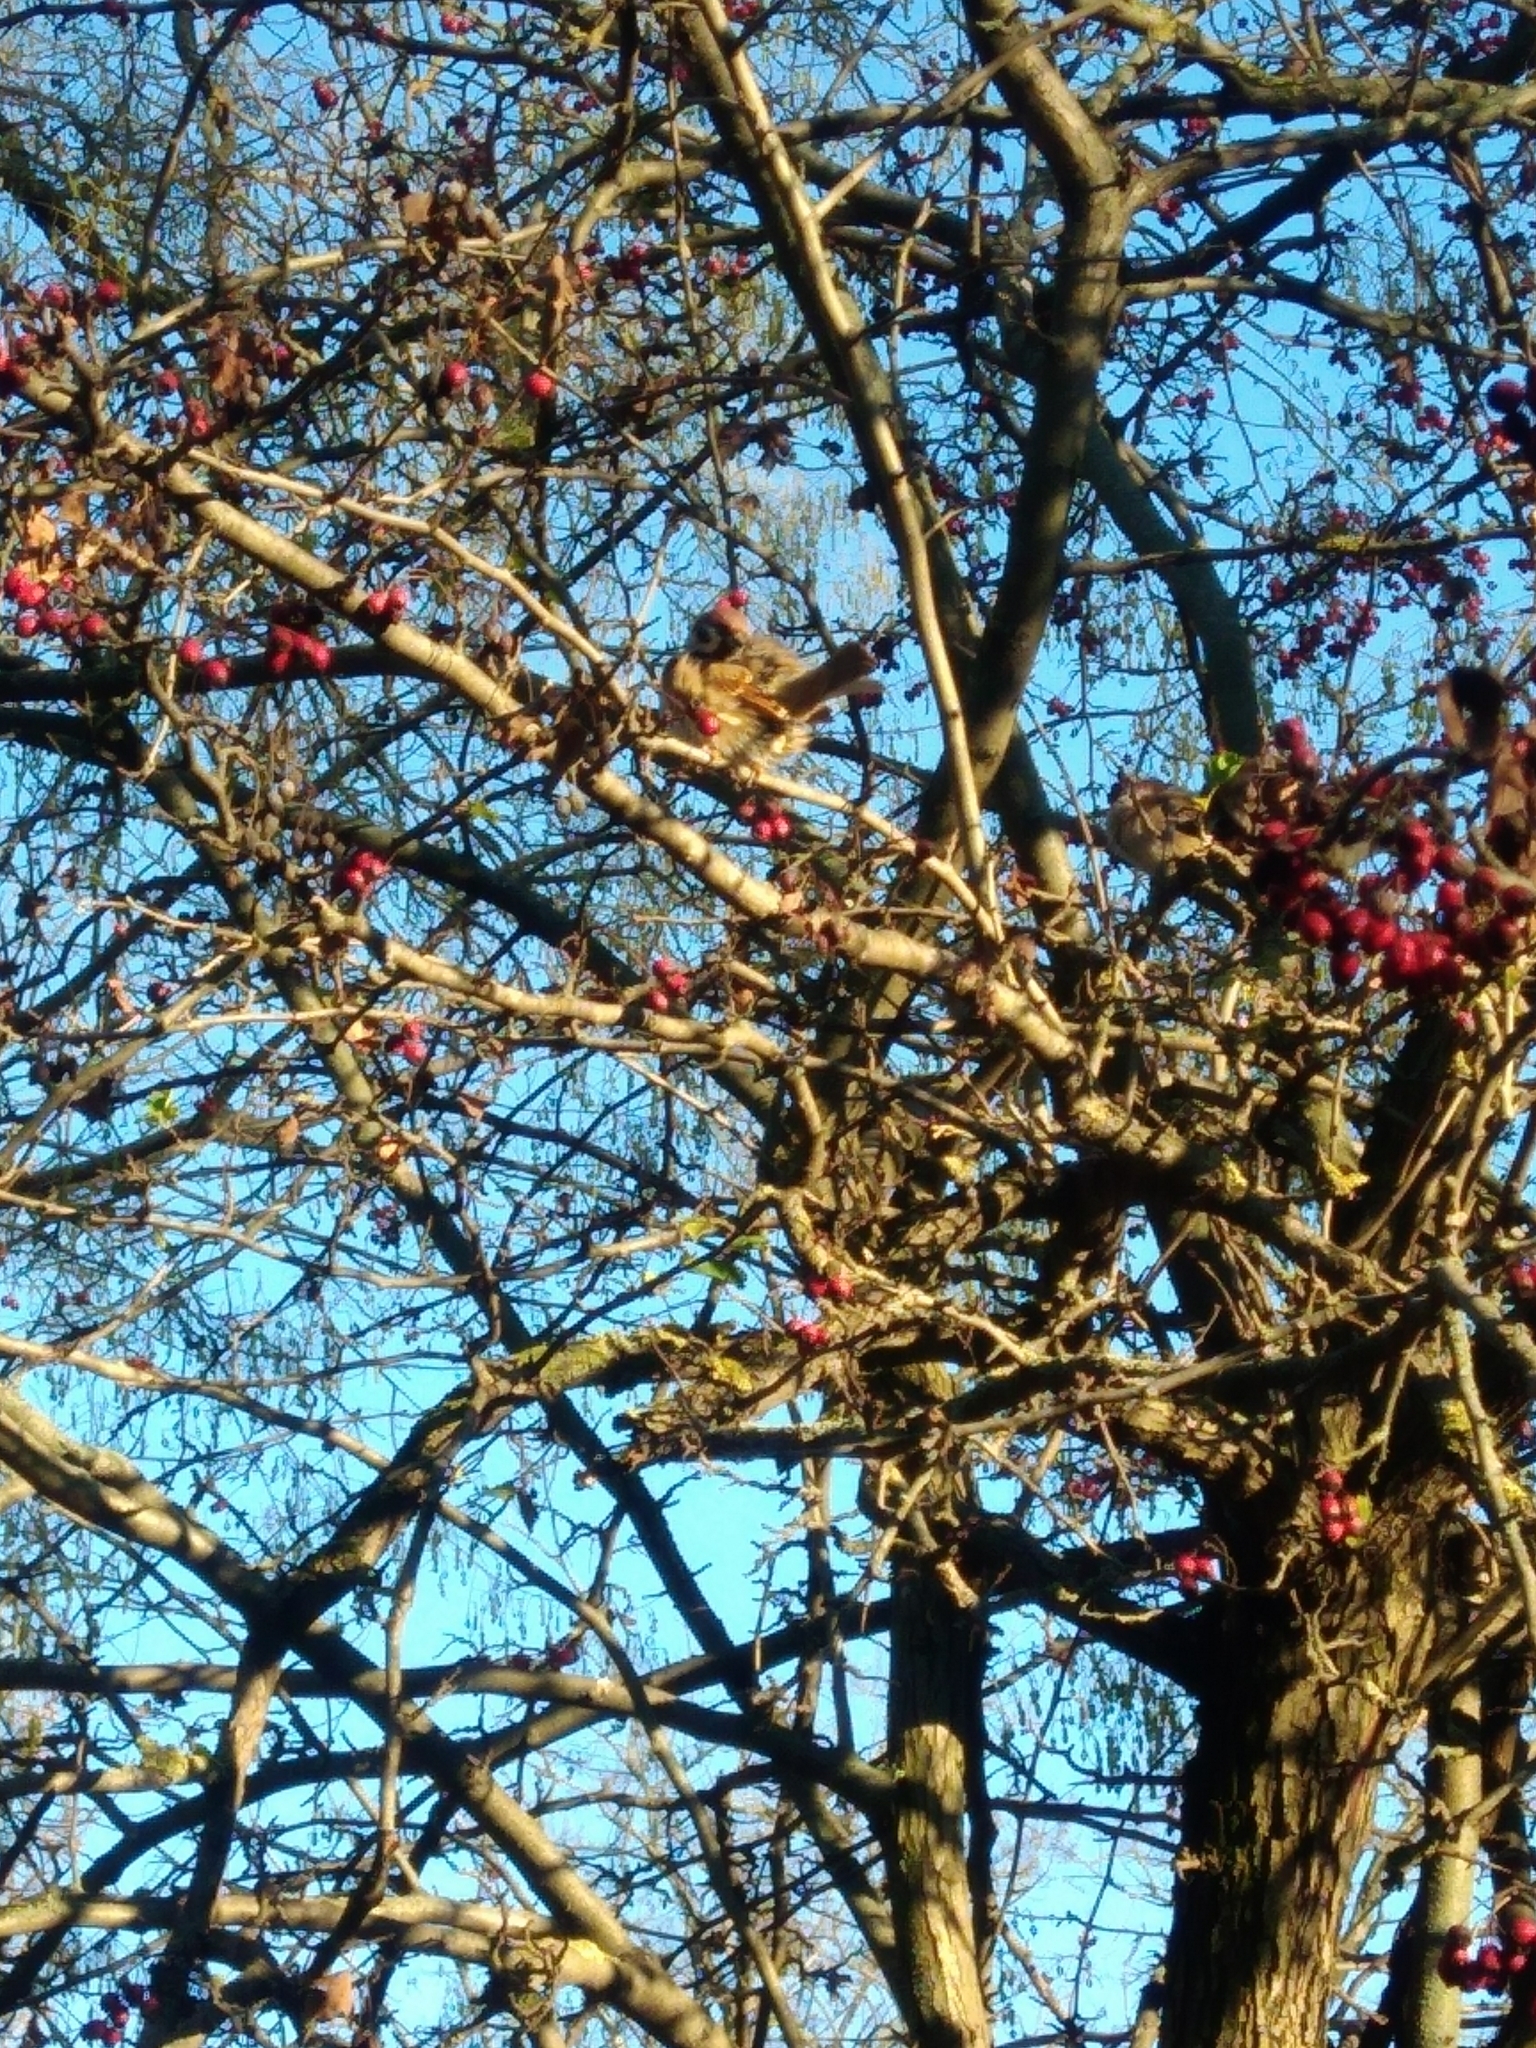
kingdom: Animalia
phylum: Chordata
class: Aves
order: Passeriformes
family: Passeridae
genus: Passer
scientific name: Passer montanus
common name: Eurasian tree sparrow
